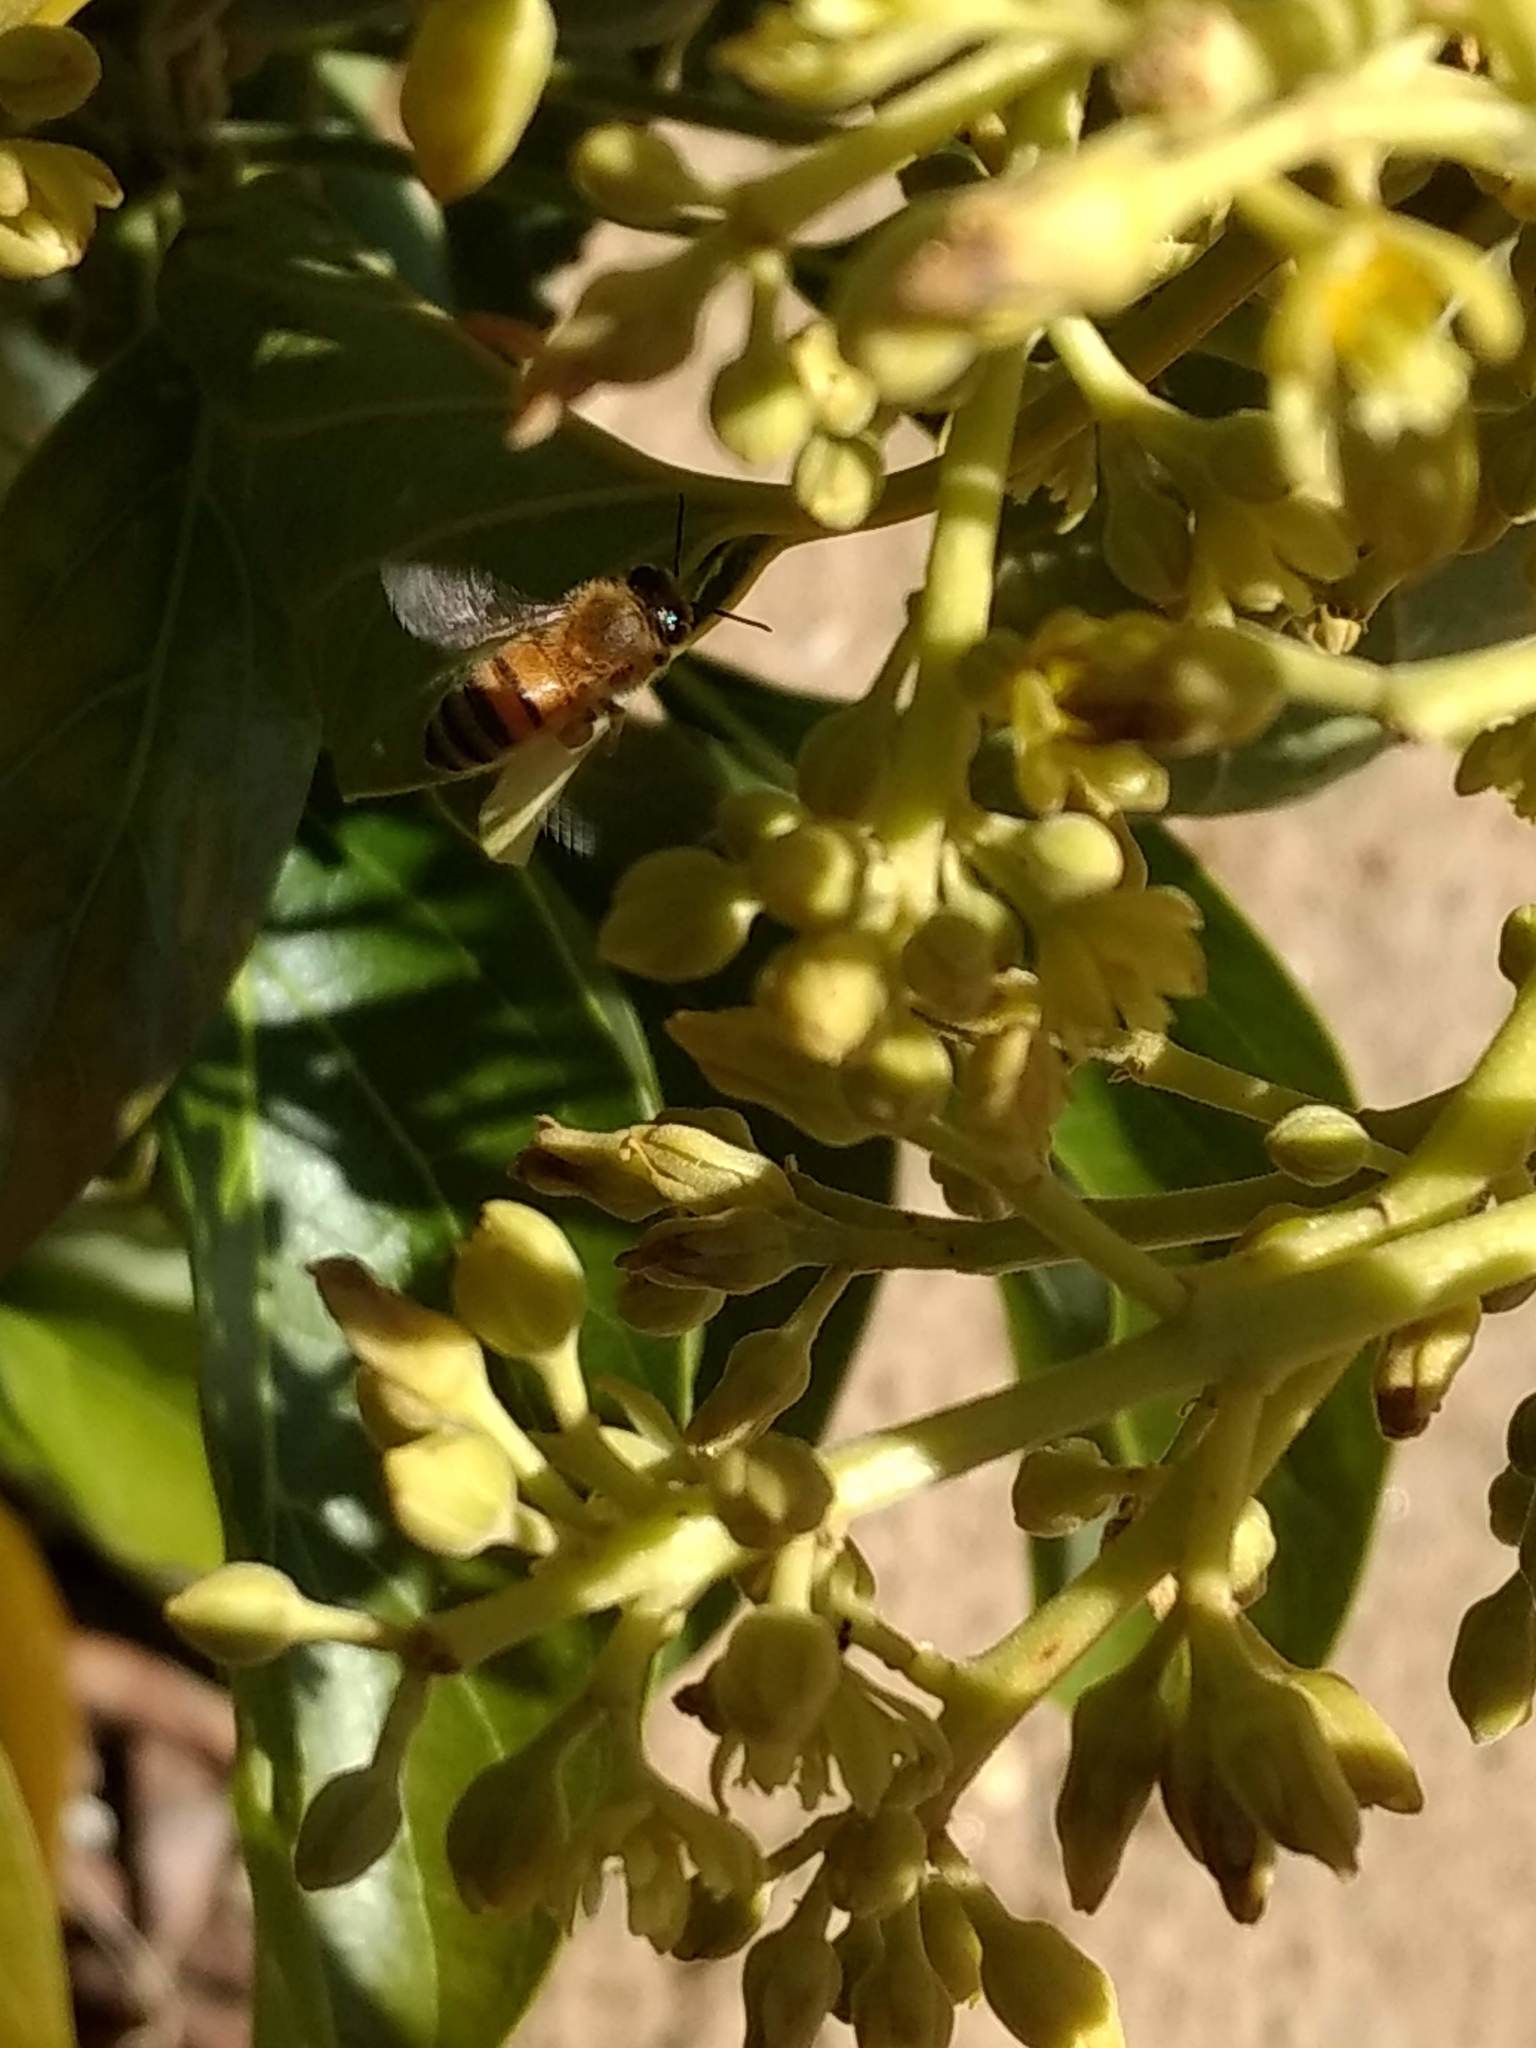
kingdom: Animalia
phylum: Arthropoda
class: Insecta
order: Hymenoptera
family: Apidae
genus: Apis
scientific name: Apis mellifera
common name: Honey bee
